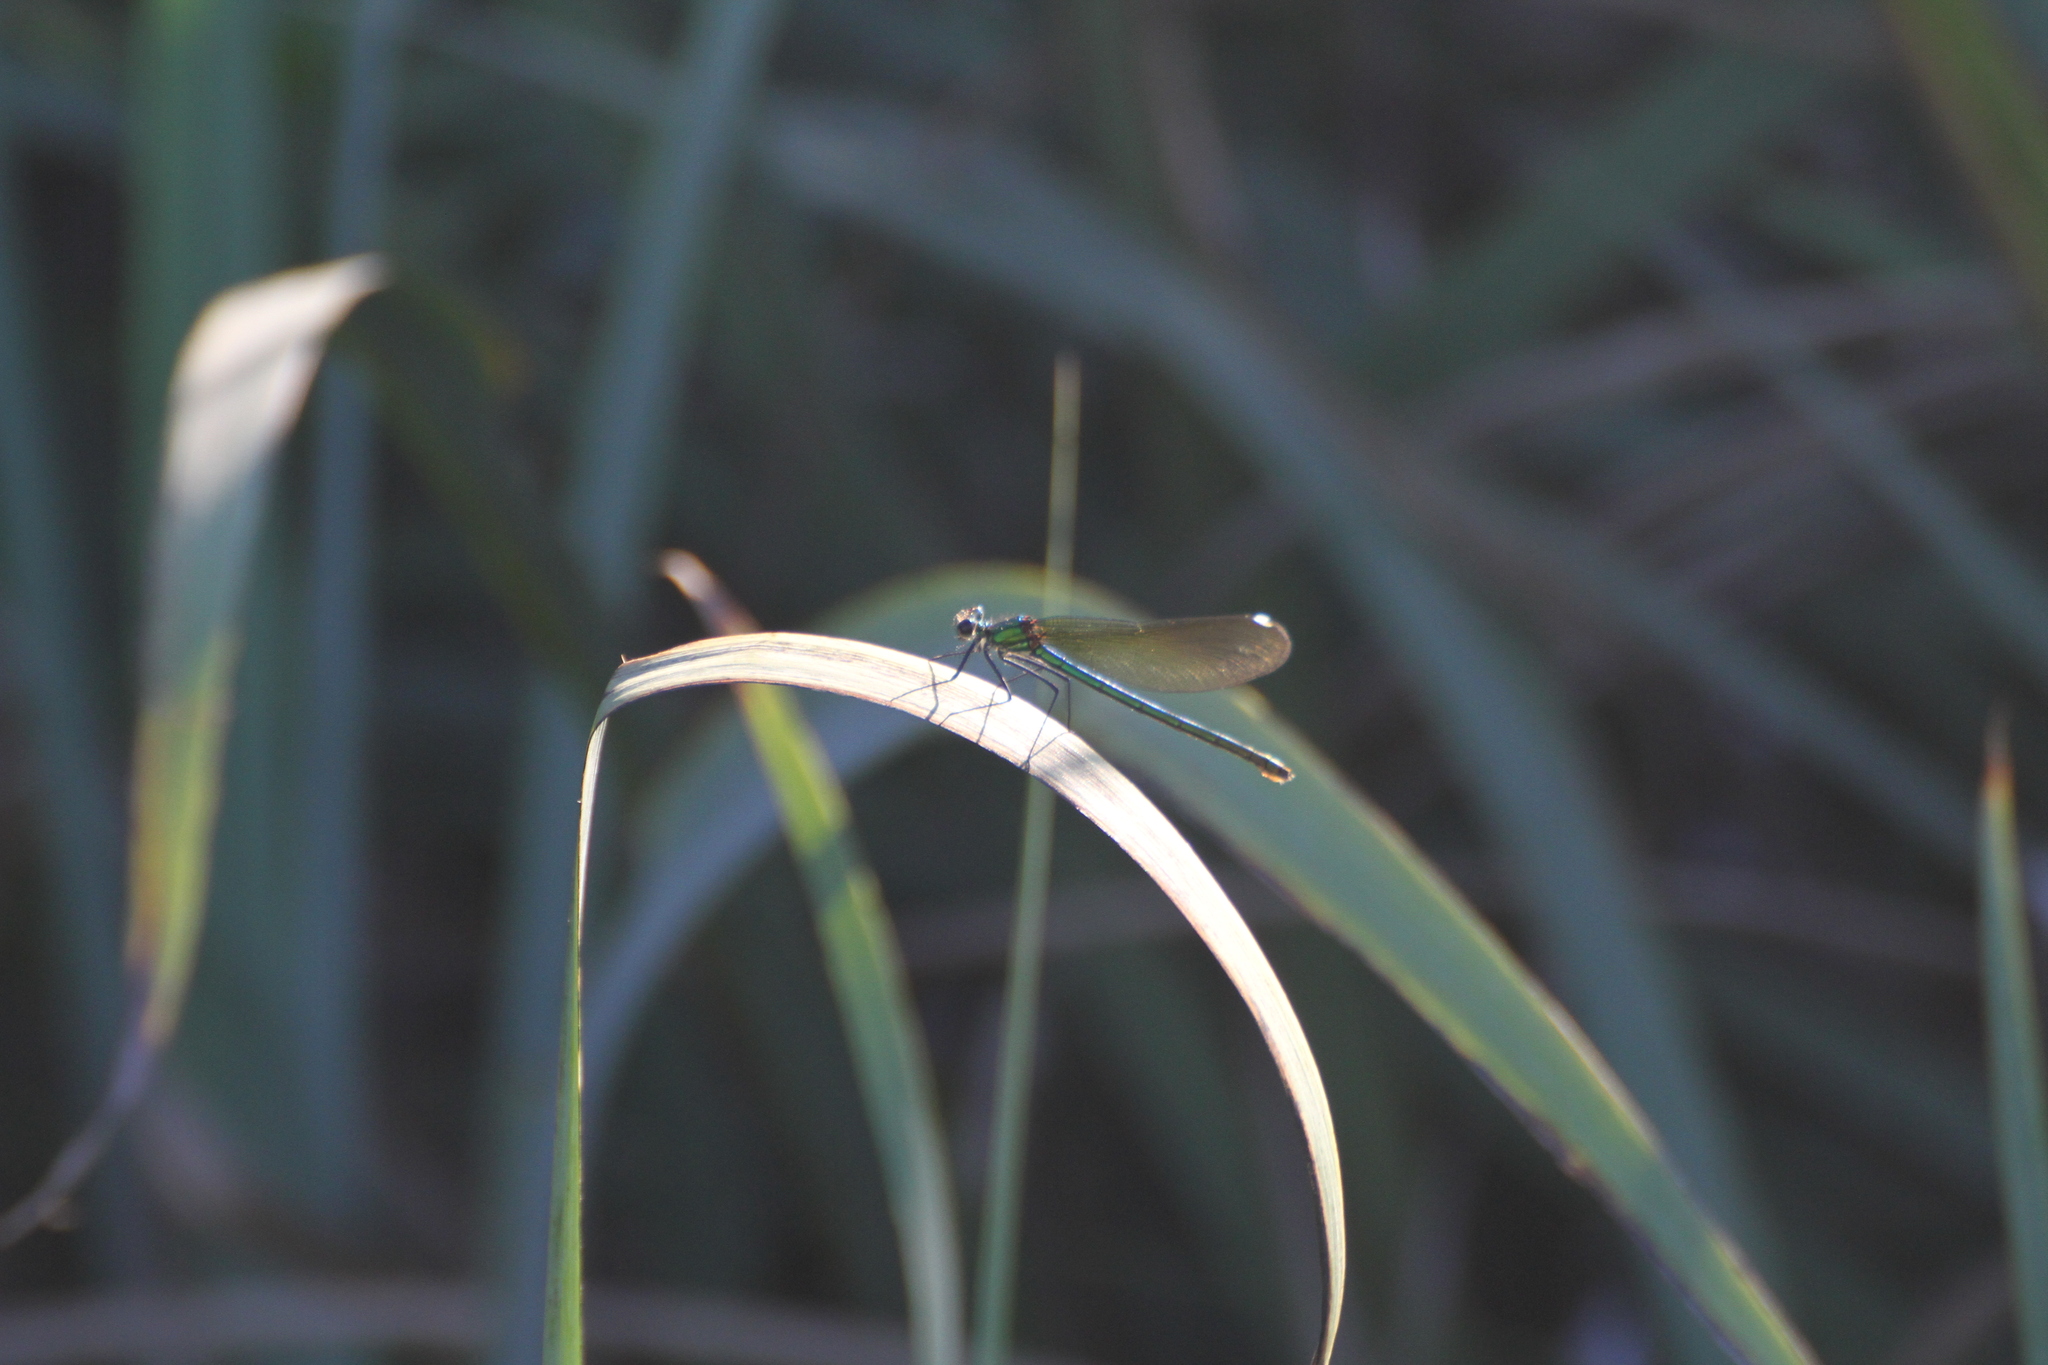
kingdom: Animalia
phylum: Arthropoda
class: Insecta
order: Odonata
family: Calopterygidae
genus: Calopteryx
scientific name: Calopteryx splendens
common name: Banded demoiselle
